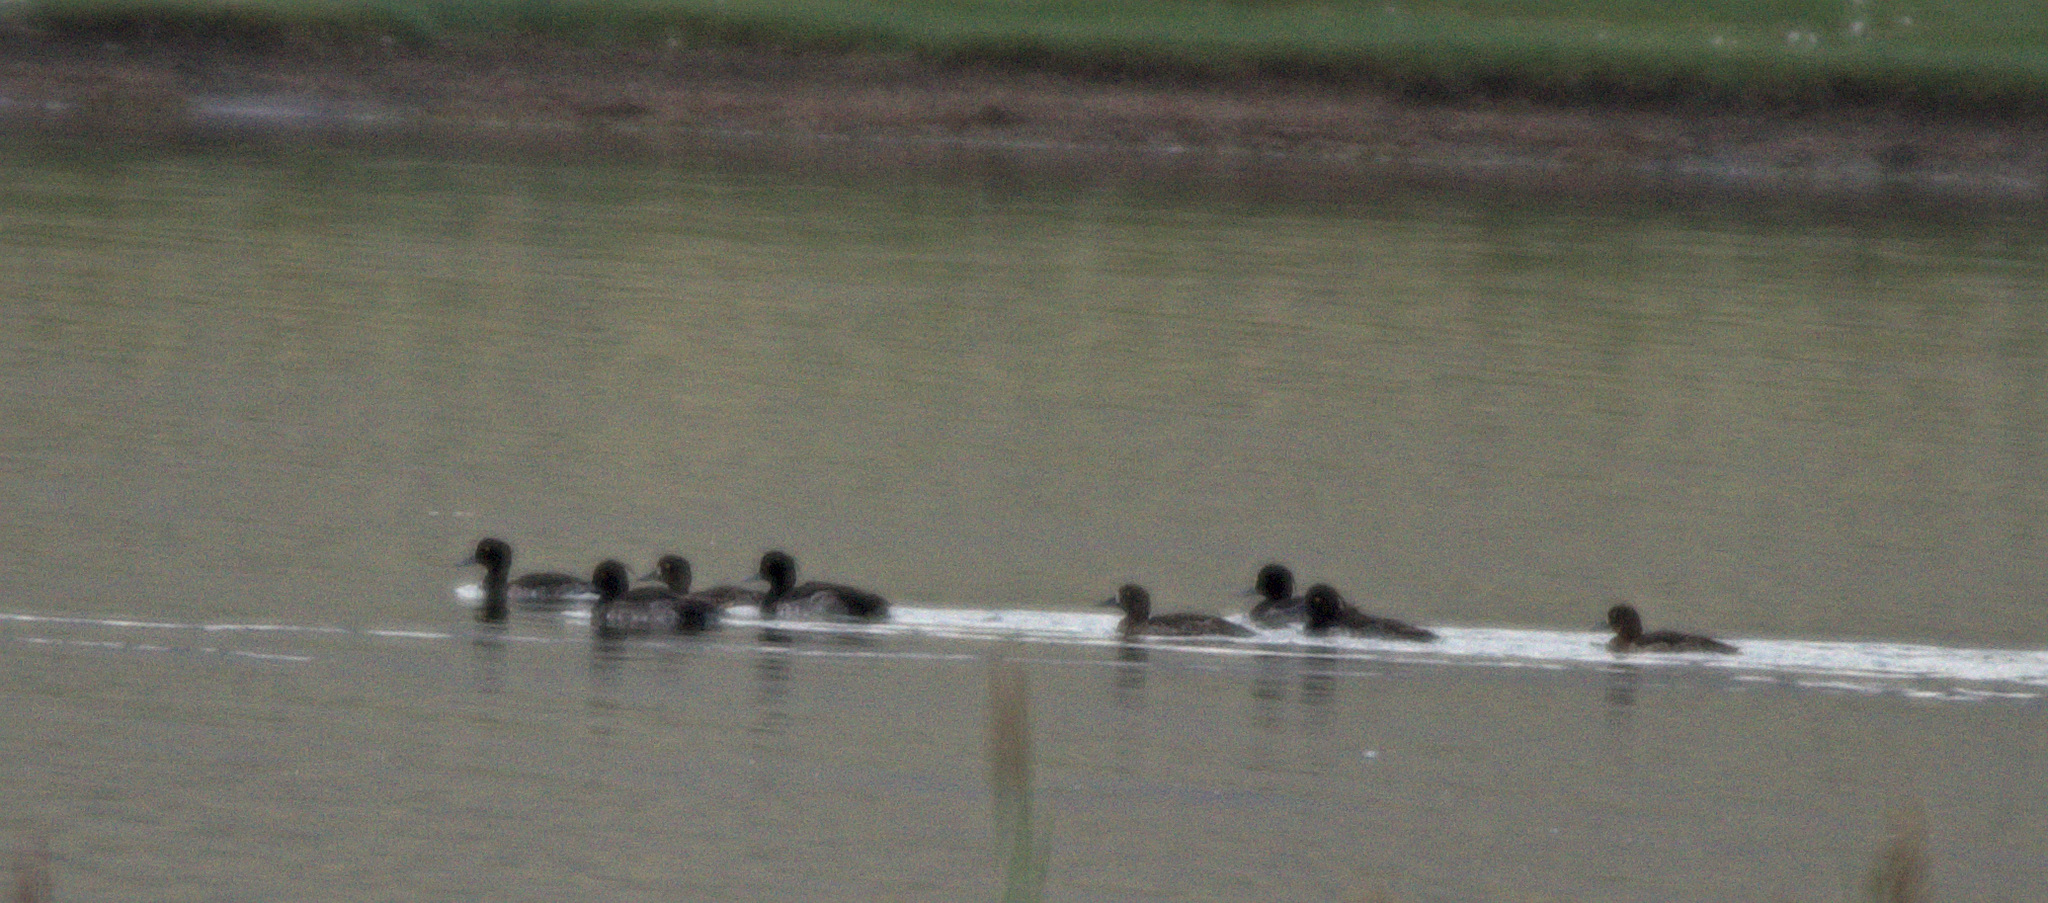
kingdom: Animalia
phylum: Chordata
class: Aves
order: Anseriformes
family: Anatidae
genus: Aythya
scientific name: Aythya fuligula
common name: Tufted duck
